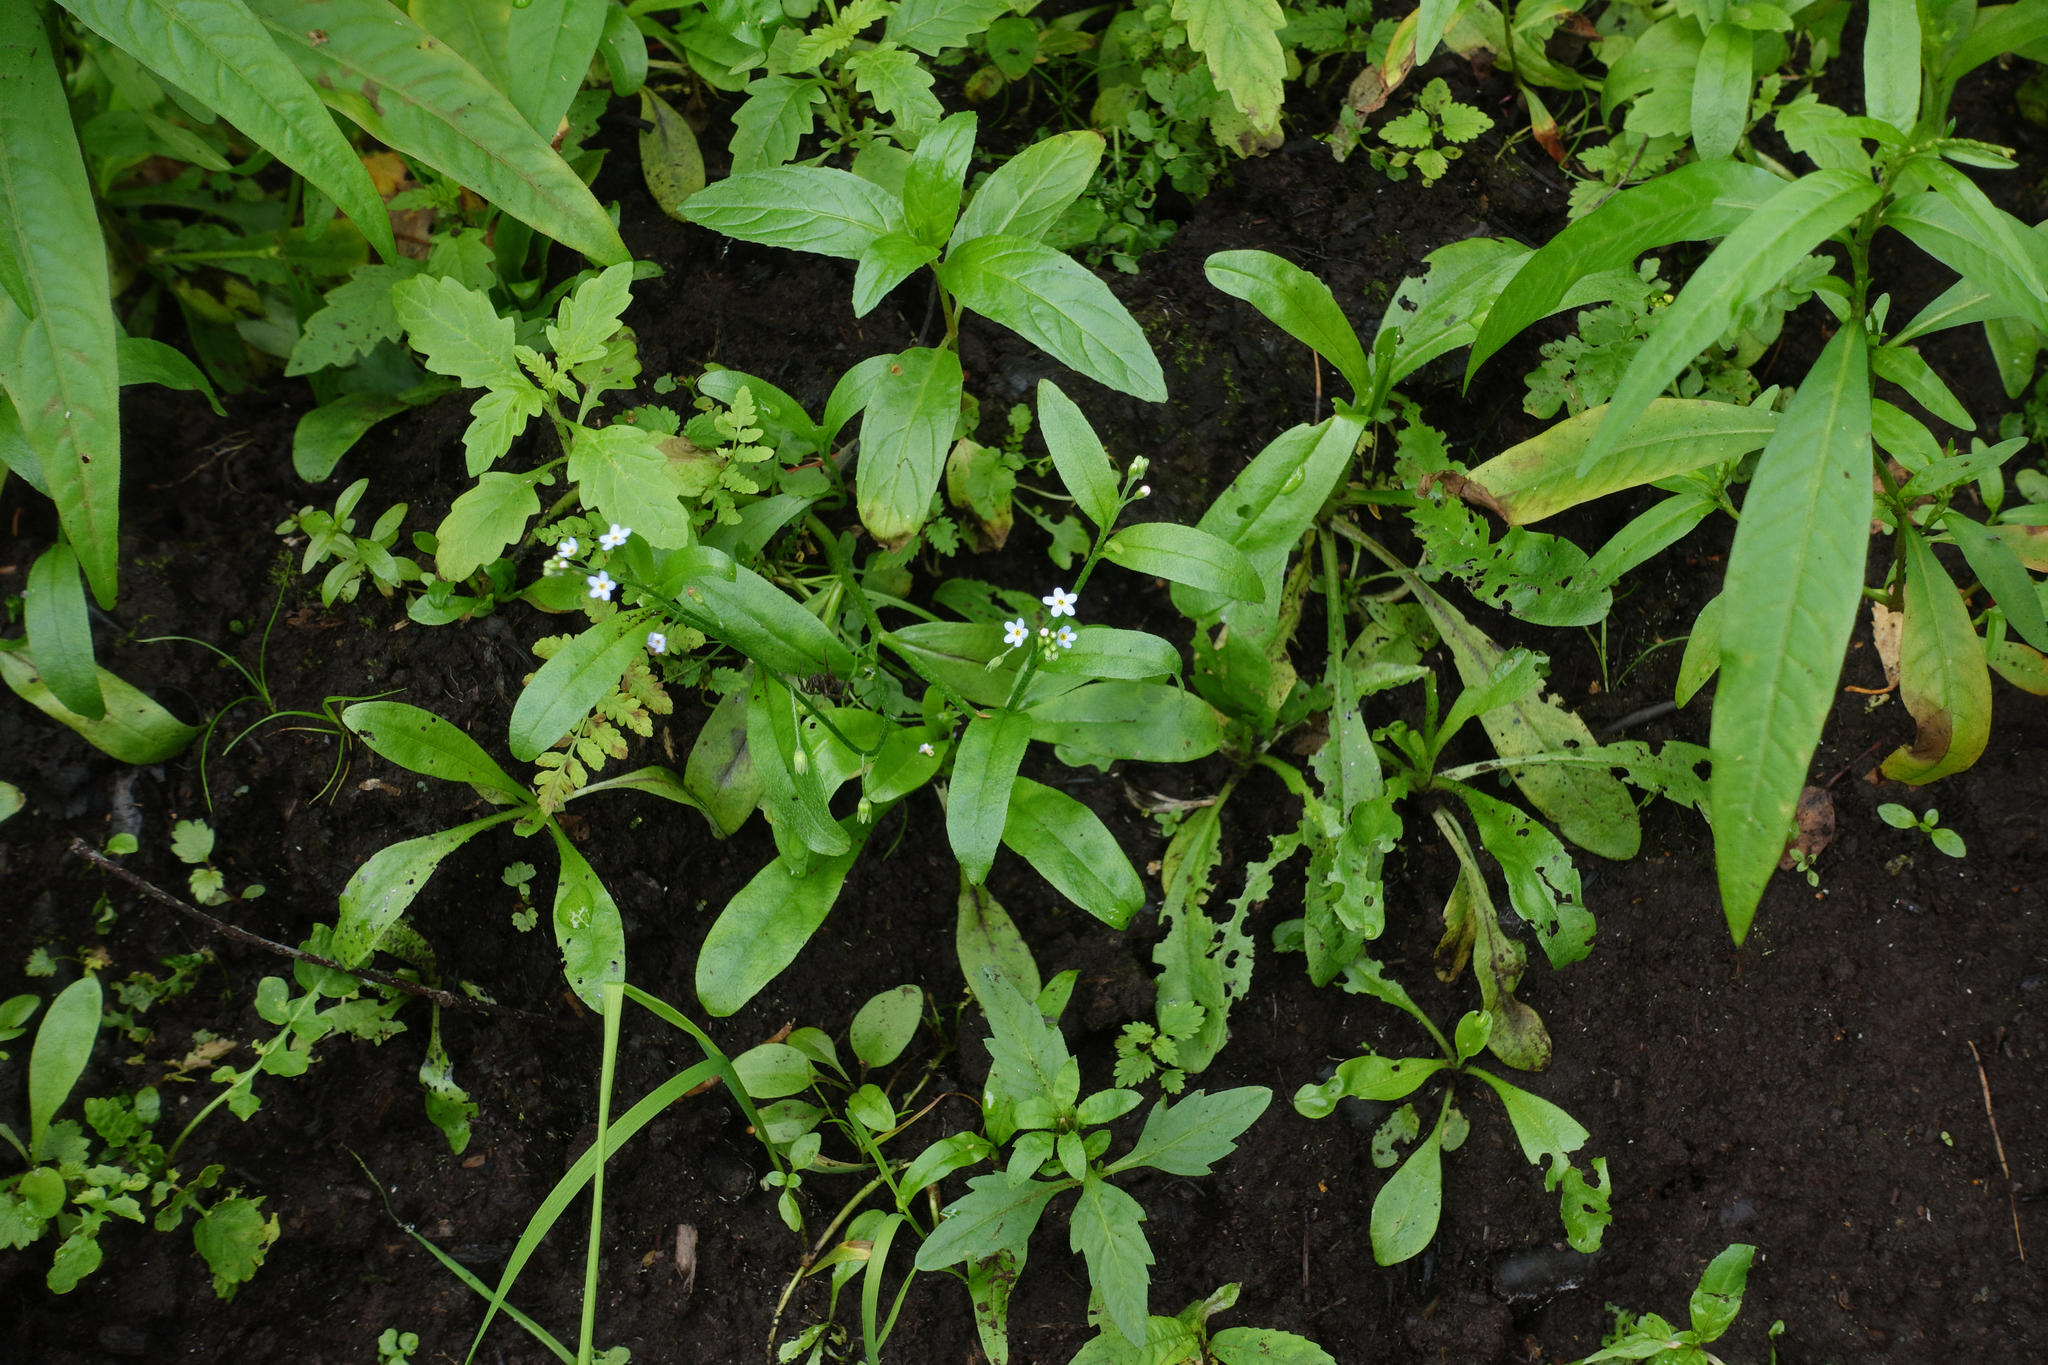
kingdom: Plantae
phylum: Tracheophyta
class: Magnoliopsida
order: Boraginales
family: Boraginaceae
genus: Myosotis
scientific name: Myosotis laxa
